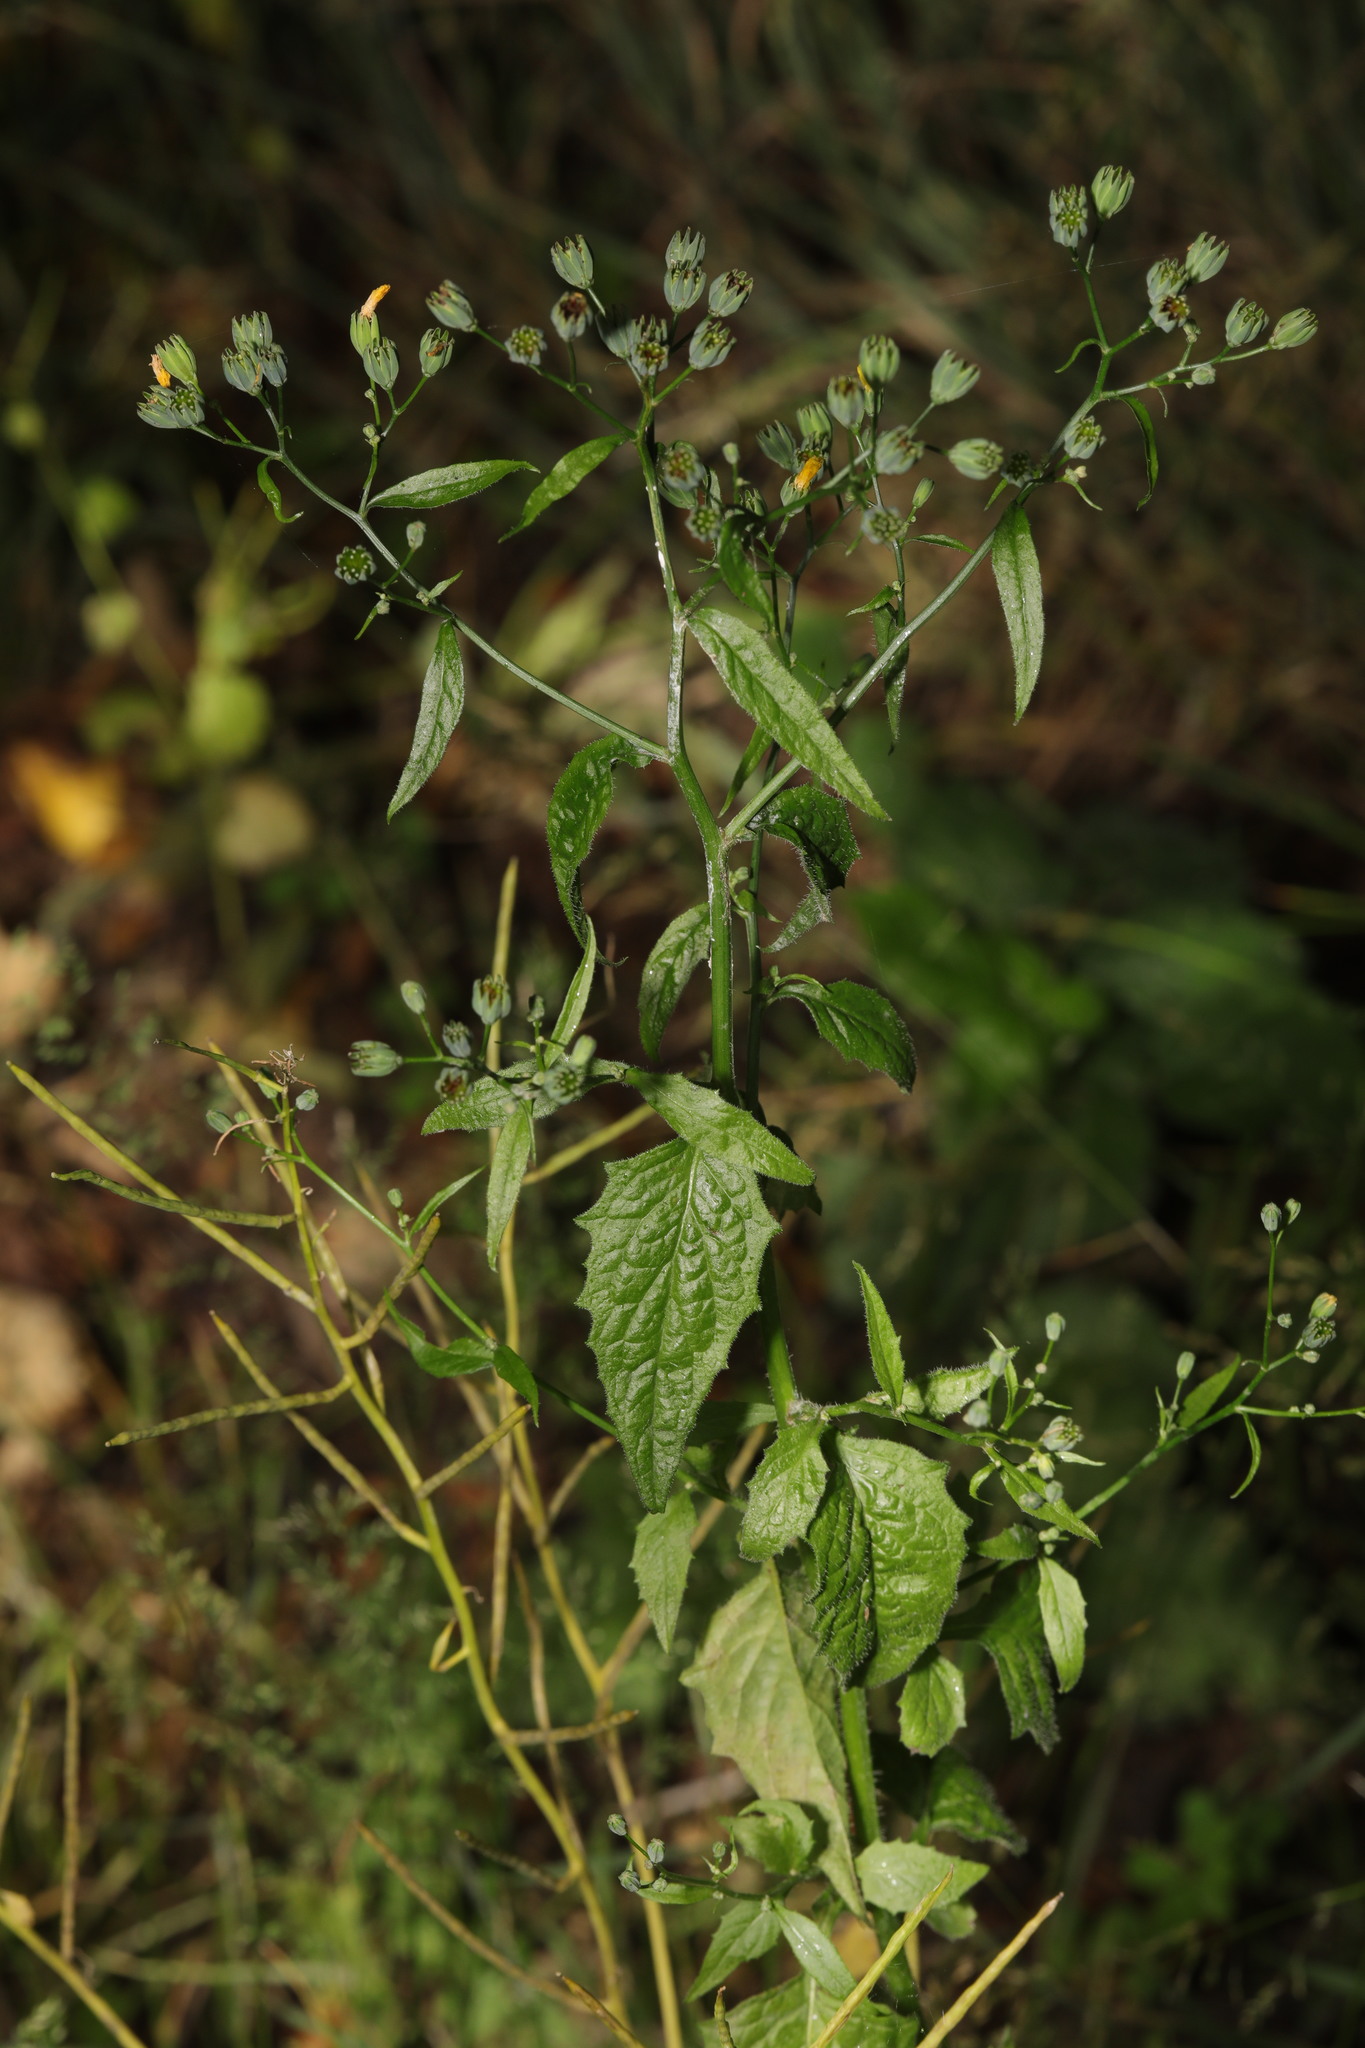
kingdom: Plantae
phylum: Tracheophyta
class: Magnoliopsida
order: Asterales
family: Asteraceae
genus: Lapsana
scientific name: Lapsana communis
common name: Nipplewort
